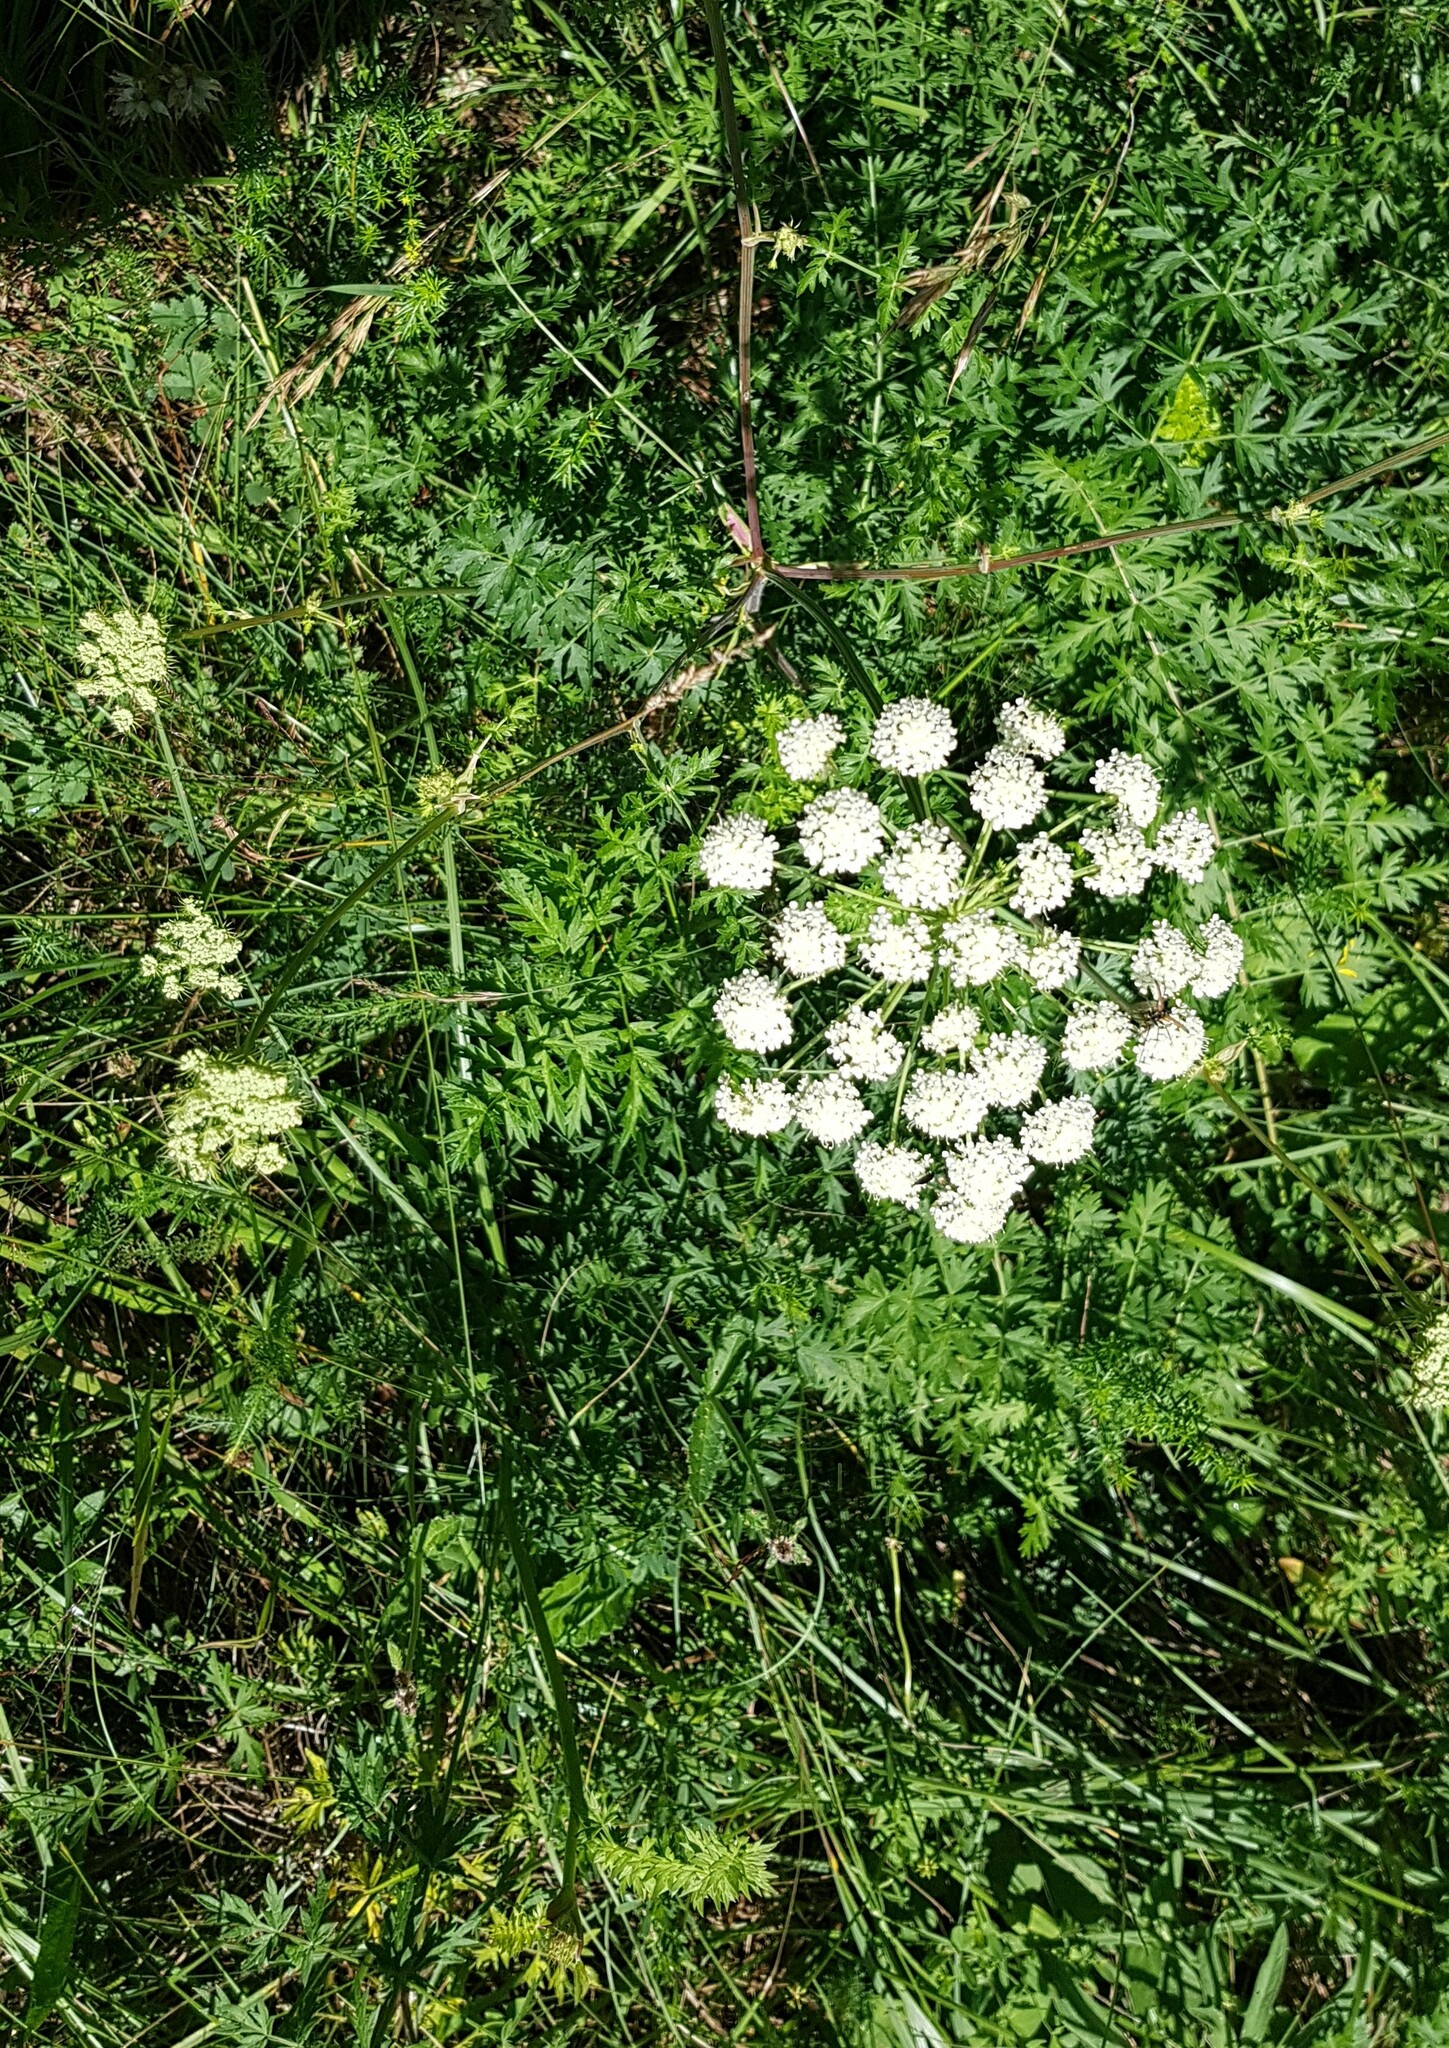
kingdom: Plantae
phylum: Tracheophyta
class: Magnoliopsida
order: Apiales
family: Apiaceae
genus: Seseli
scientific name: Seseli libanotis
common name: Mooncarrot
